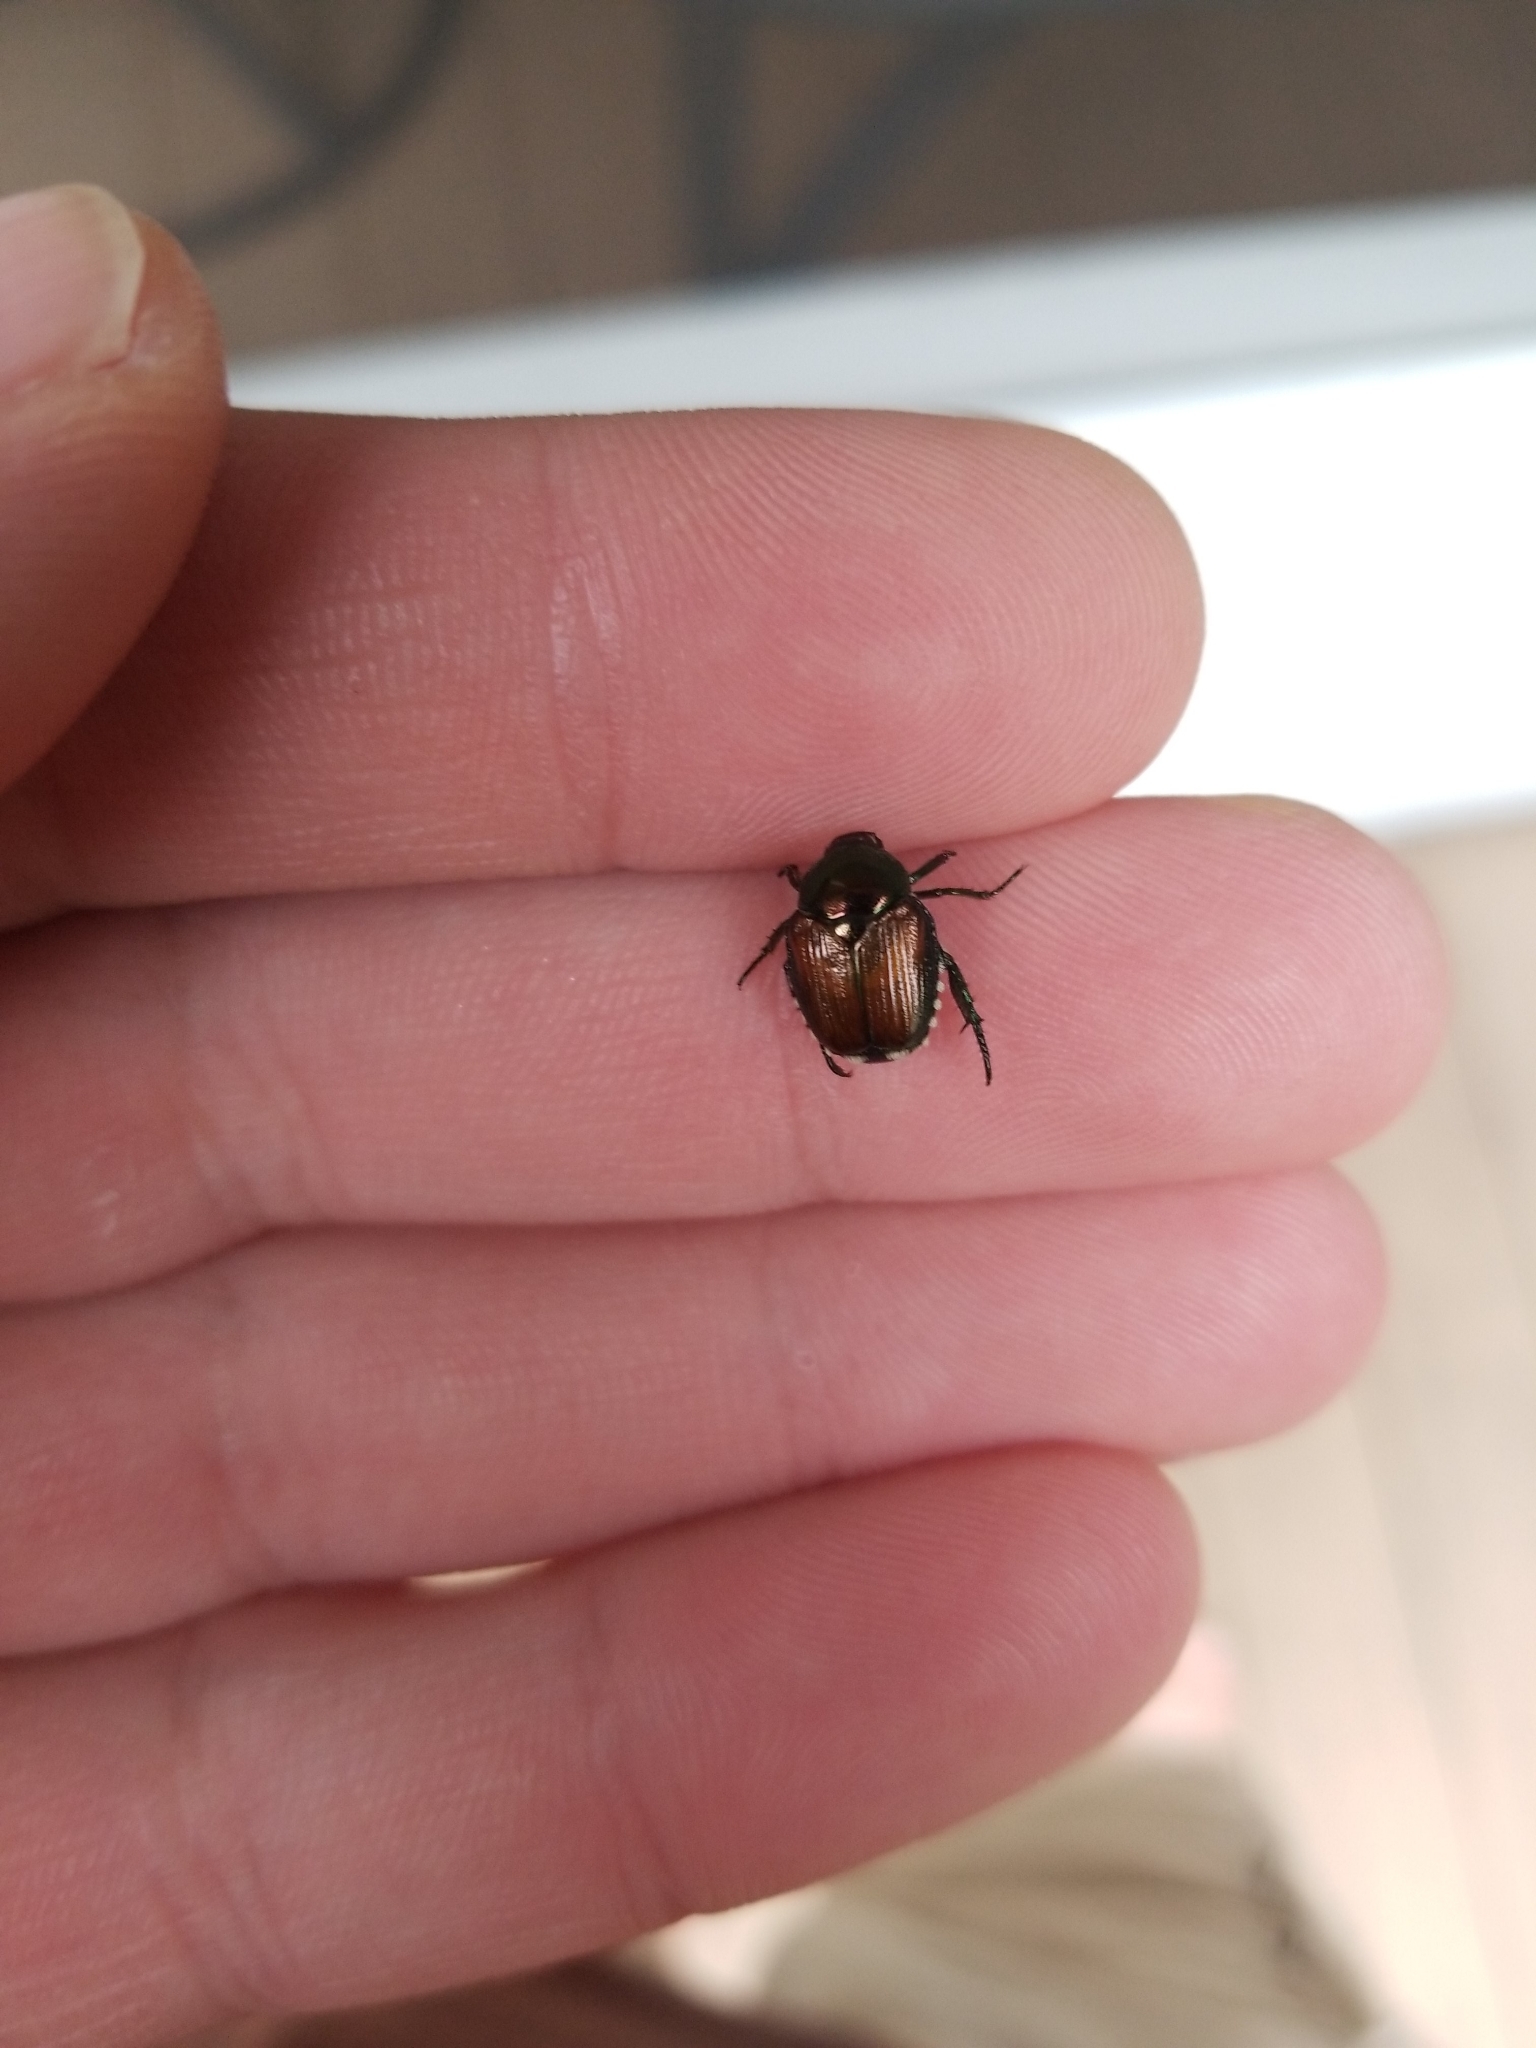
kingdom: Animalia
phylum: Arthropoda
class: Insecta
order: Coleoptera
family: Scarabaeidae
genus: Popillia
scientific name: Popillia japonica
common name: Japanese beetle
